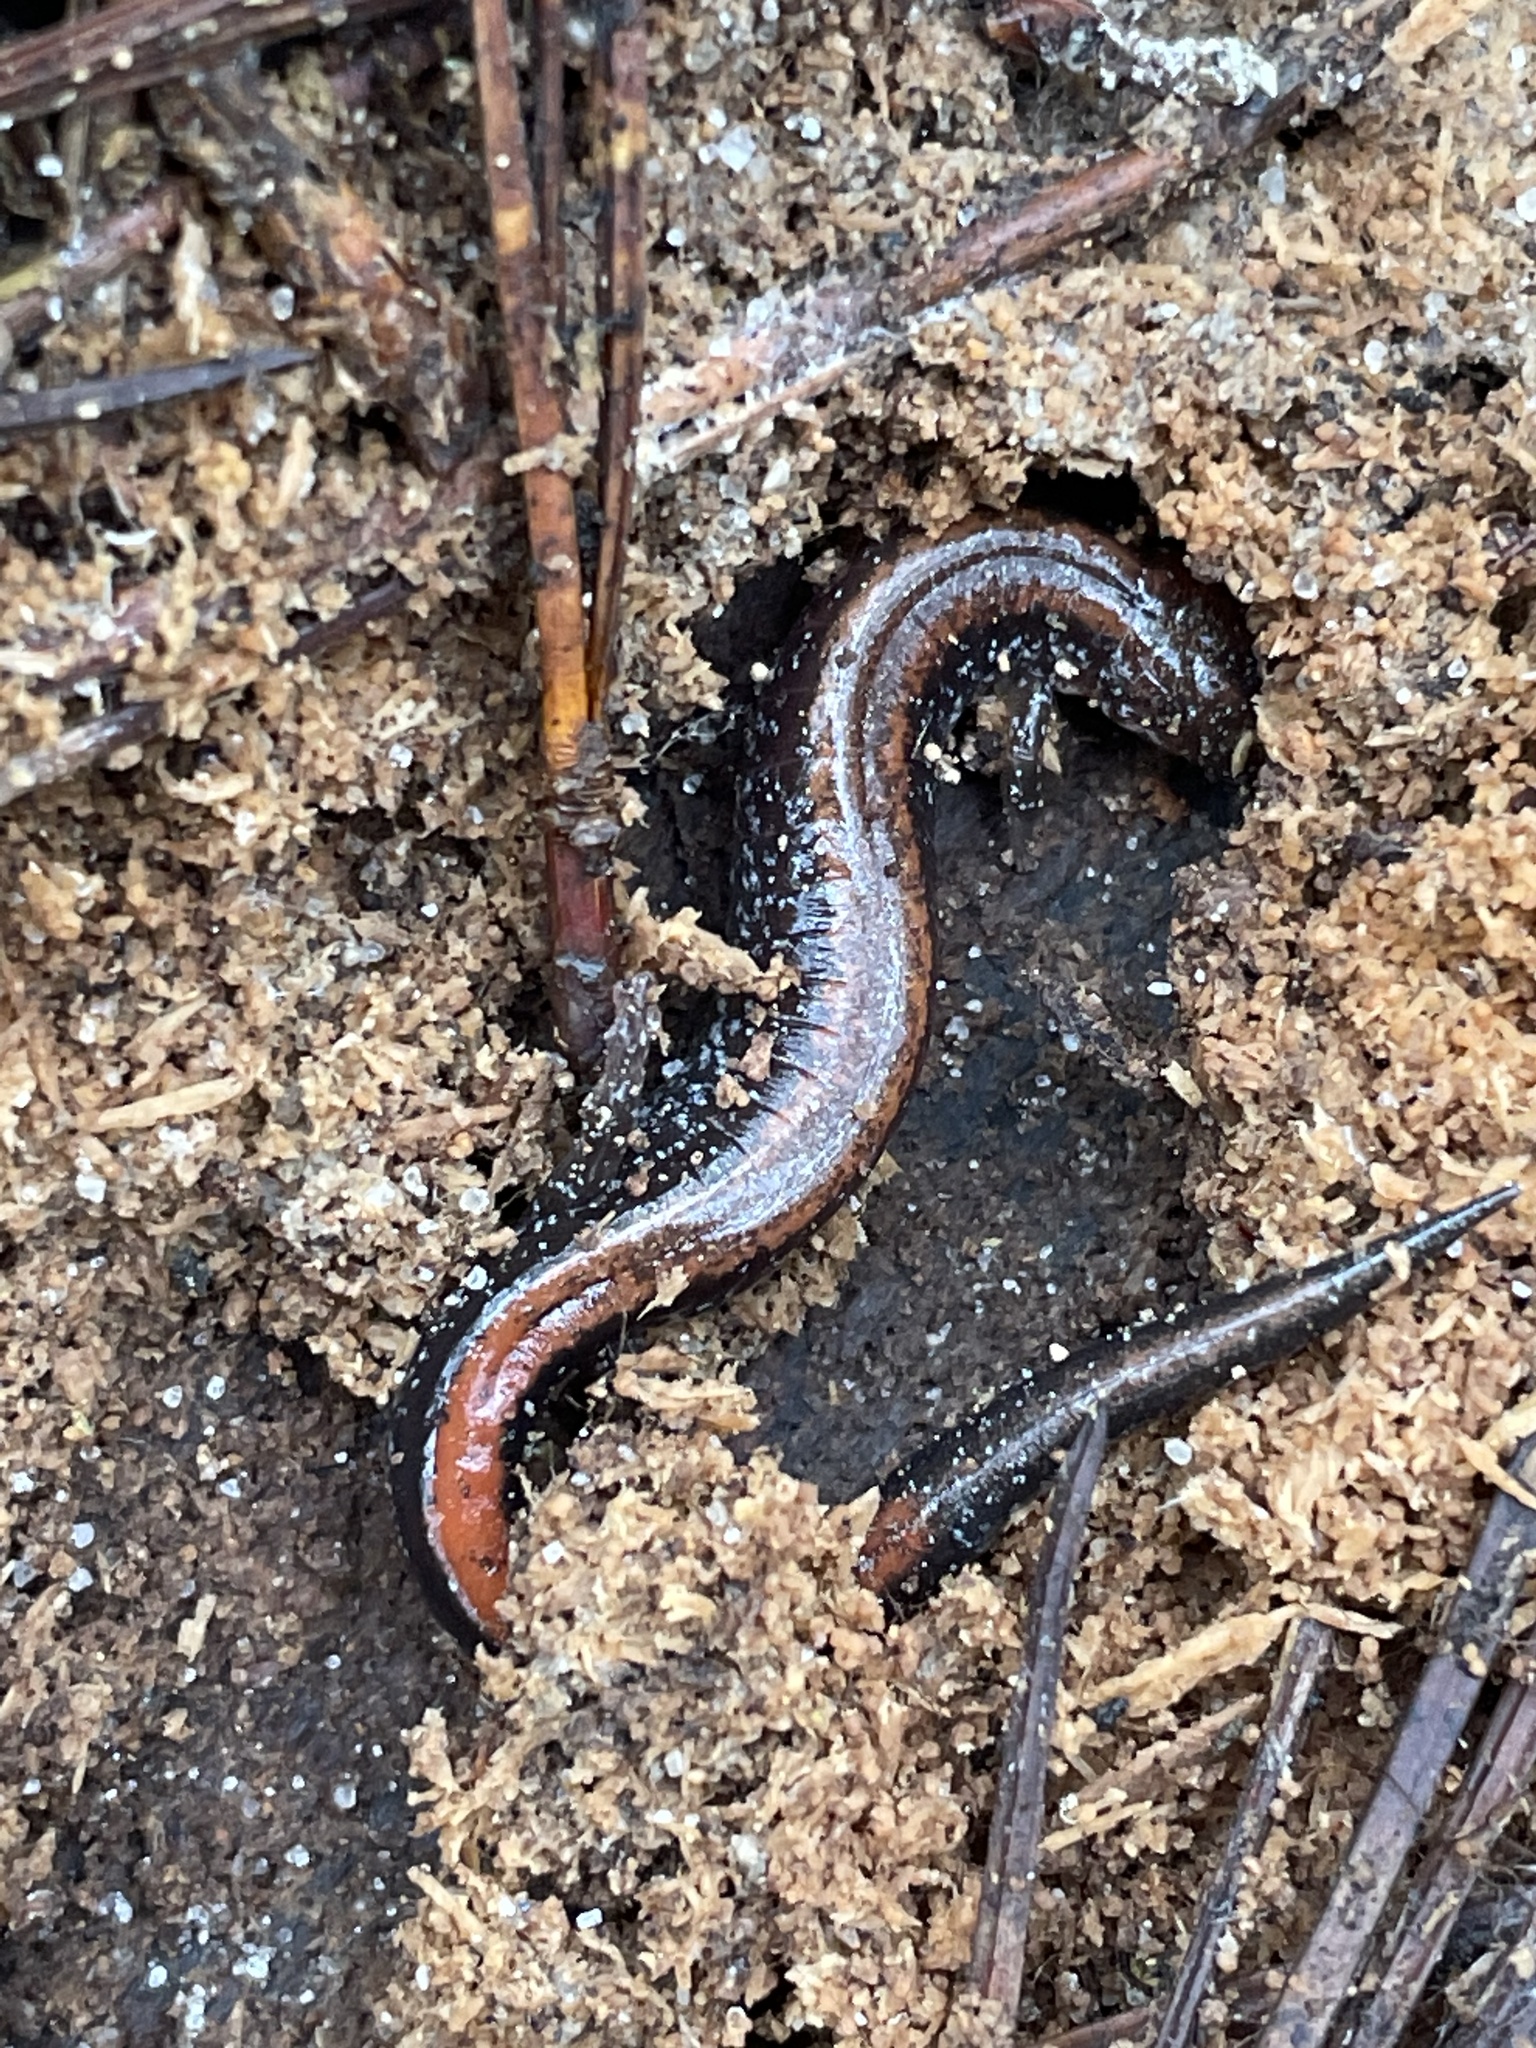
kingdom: Animalia
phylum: Chordata
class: Amphibia
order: Caudata
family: Plethodontidae
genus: Plethodon
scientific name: Plethodon cinereus
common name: Redback salamander
